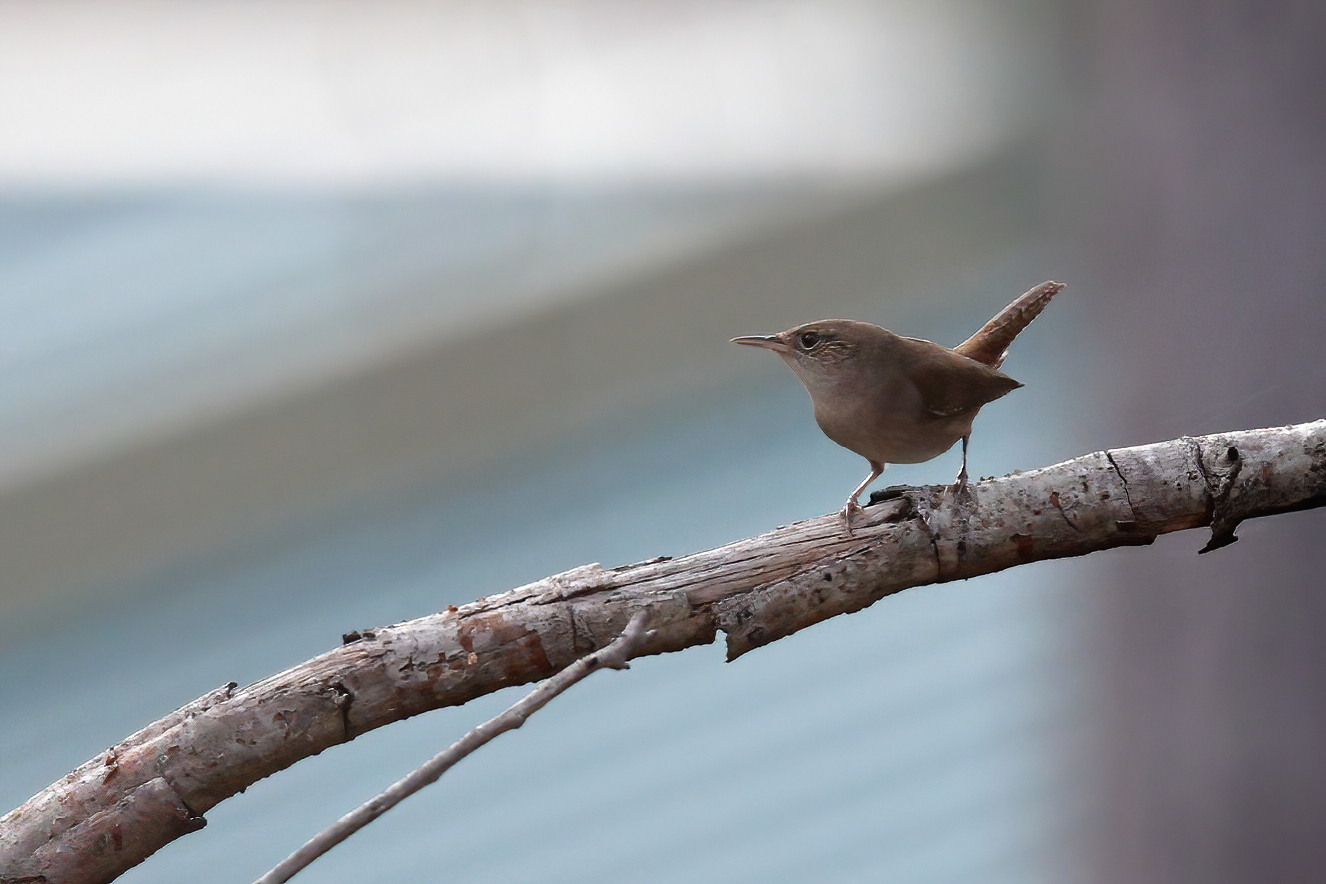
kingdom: Animalia
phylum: Chordata
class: Aves
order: Passeriformes
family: Troglodytidae
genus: Troglodytes
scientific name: Troglodytes aedon
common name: House wren
